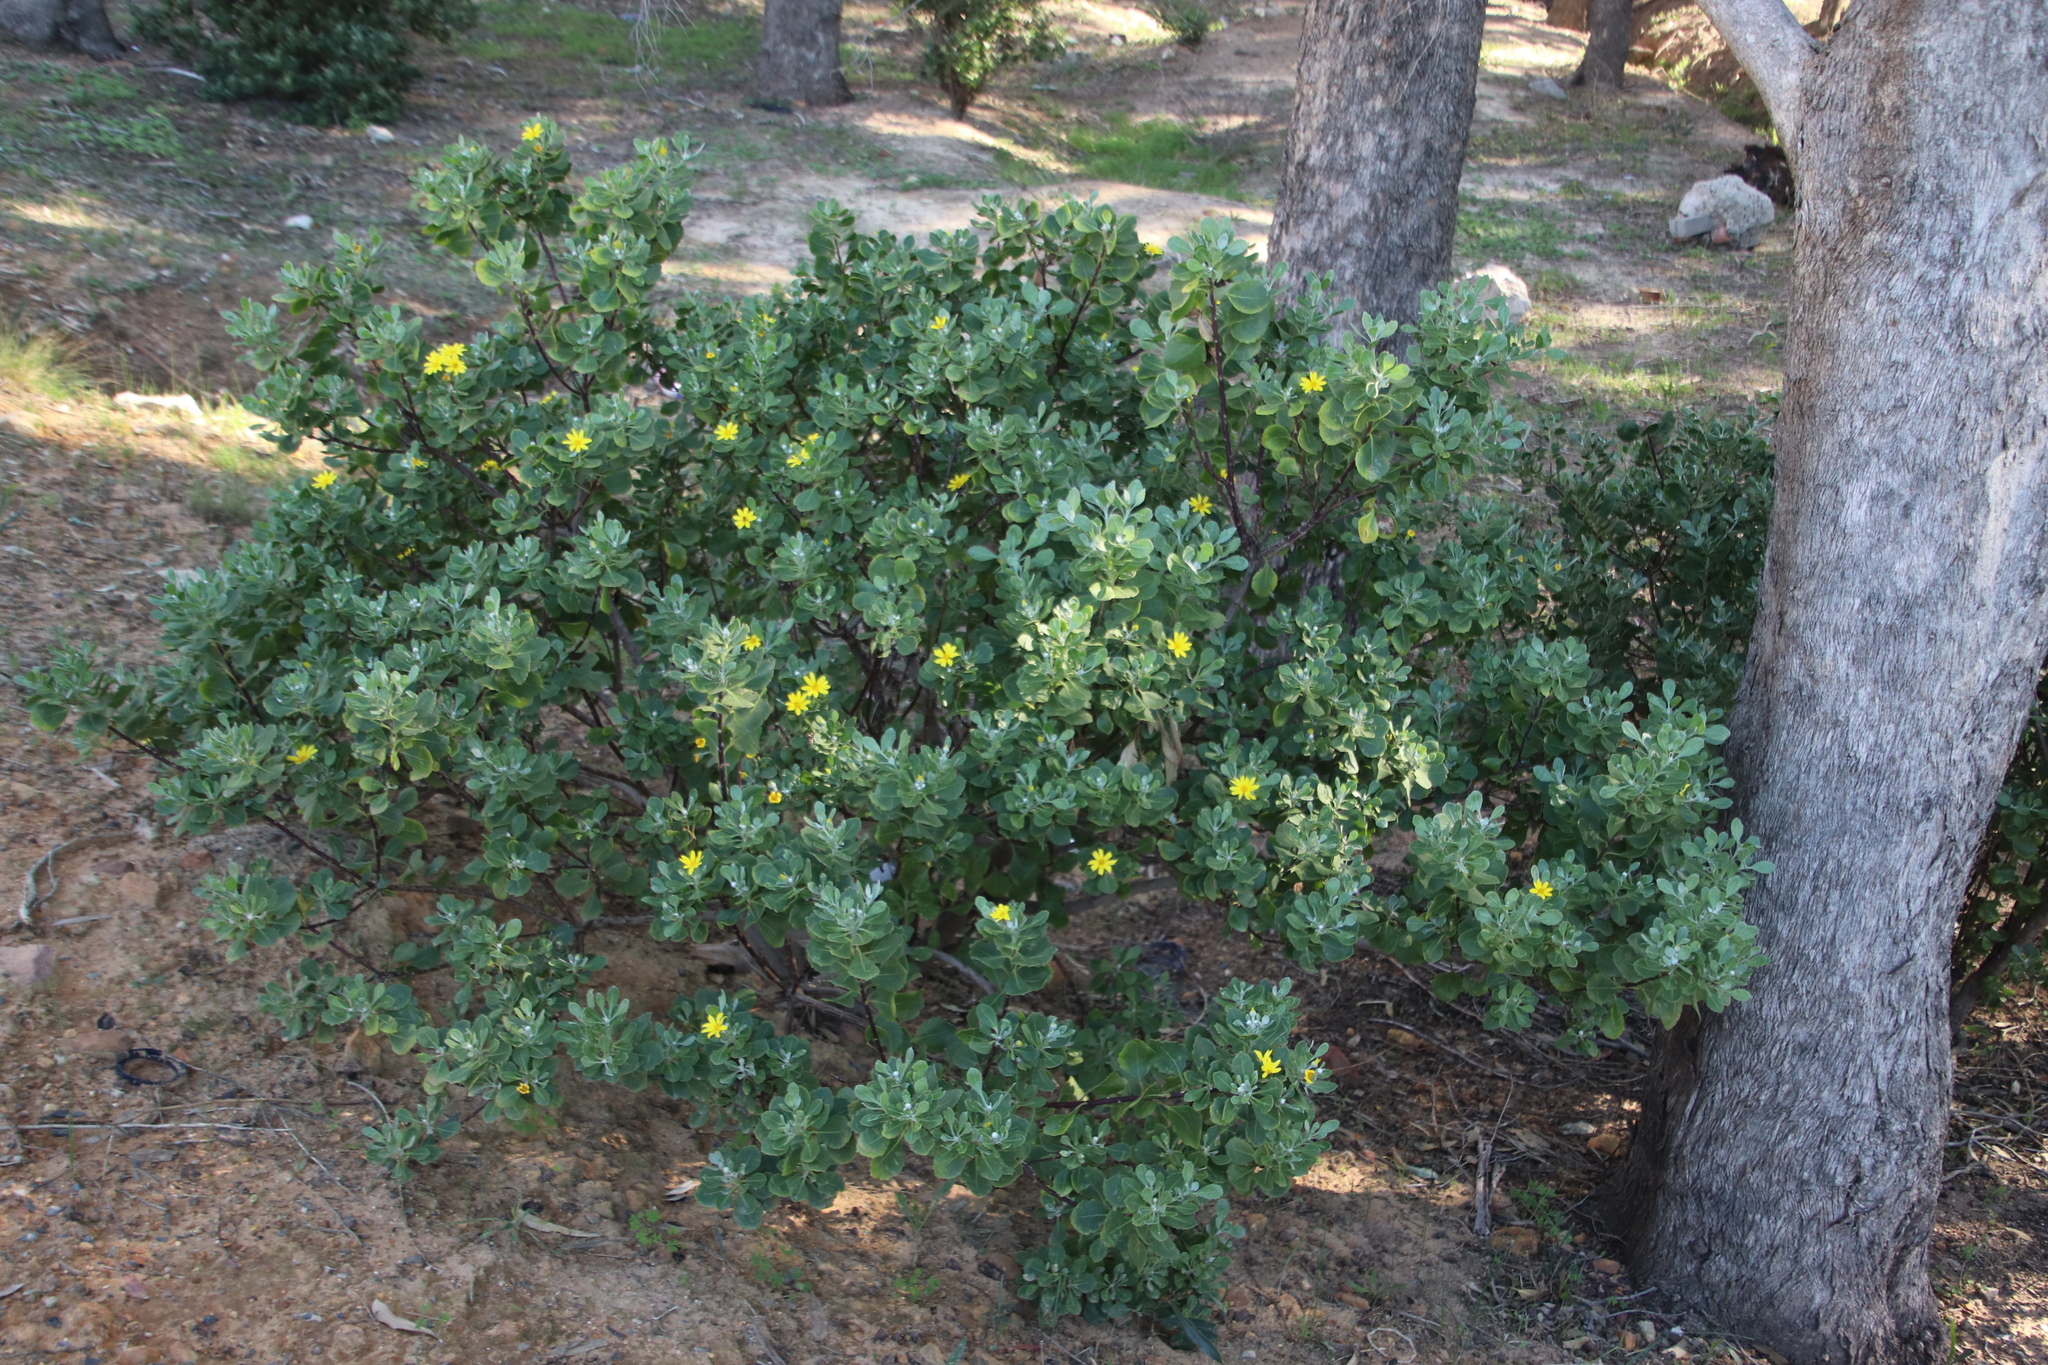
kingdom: Plantae
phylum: Tracheophyta
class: Magnoliopsida
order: Asterales
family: Asteraceae
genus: Osteospermum
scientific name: Osteospermum moniliferum
